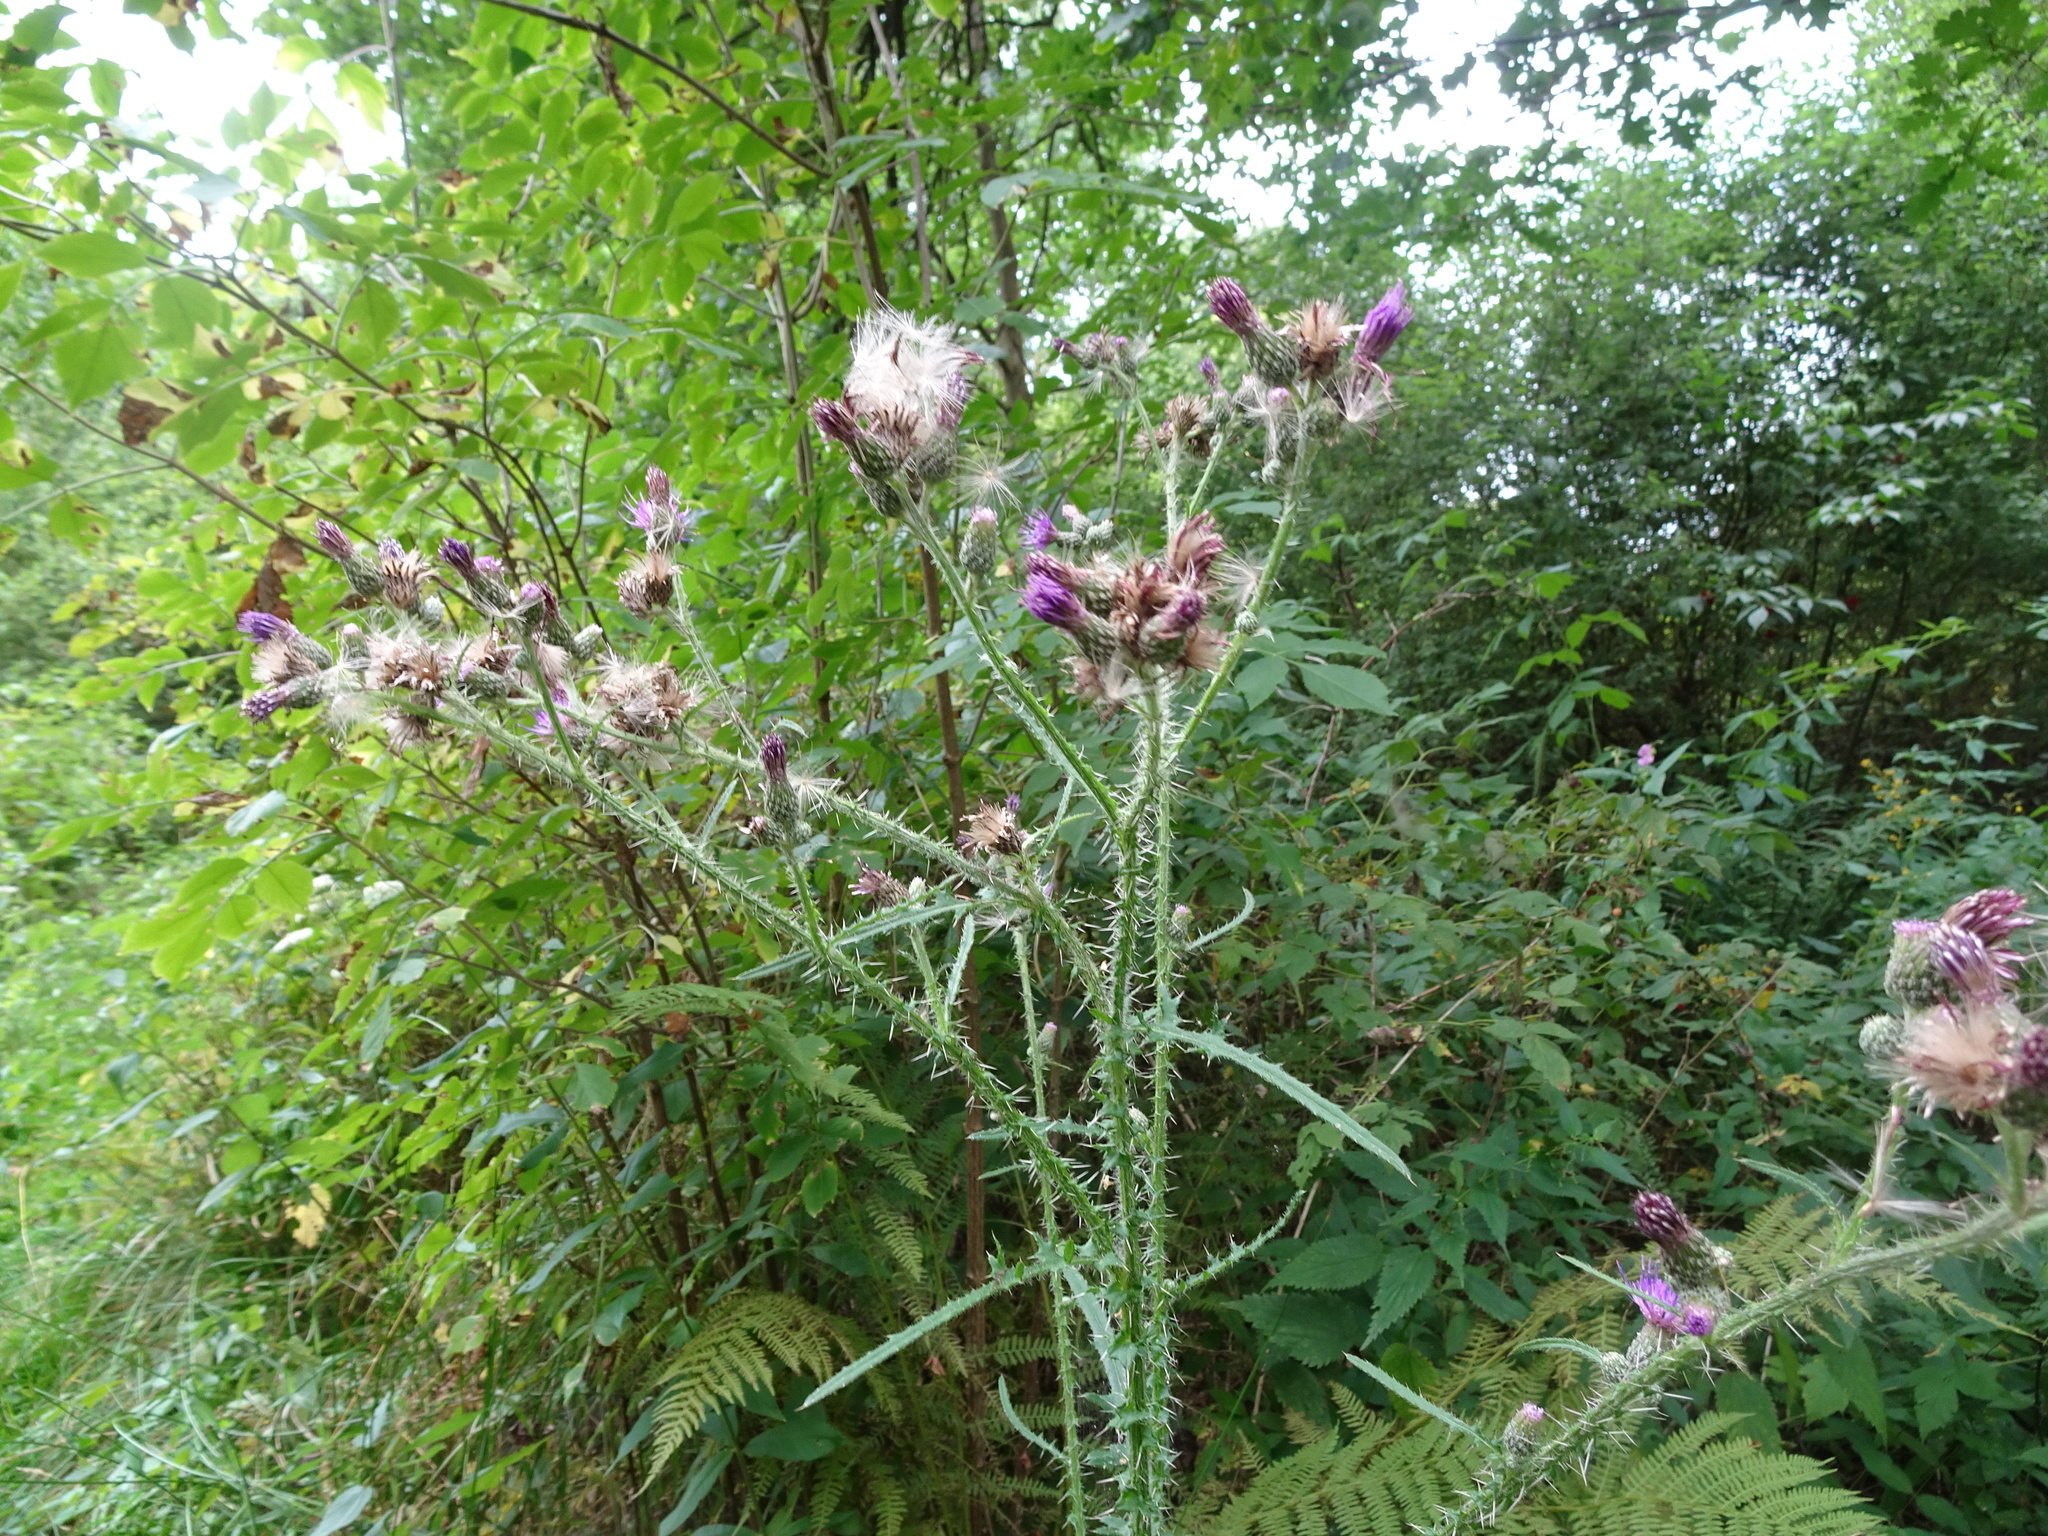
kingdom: Plantae
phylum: Tracheophyta
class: Magnoliopsida
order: Asterales
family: Asteraceae
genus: Cirsium
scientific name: Cirsium palustre
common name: Marsh thistle
